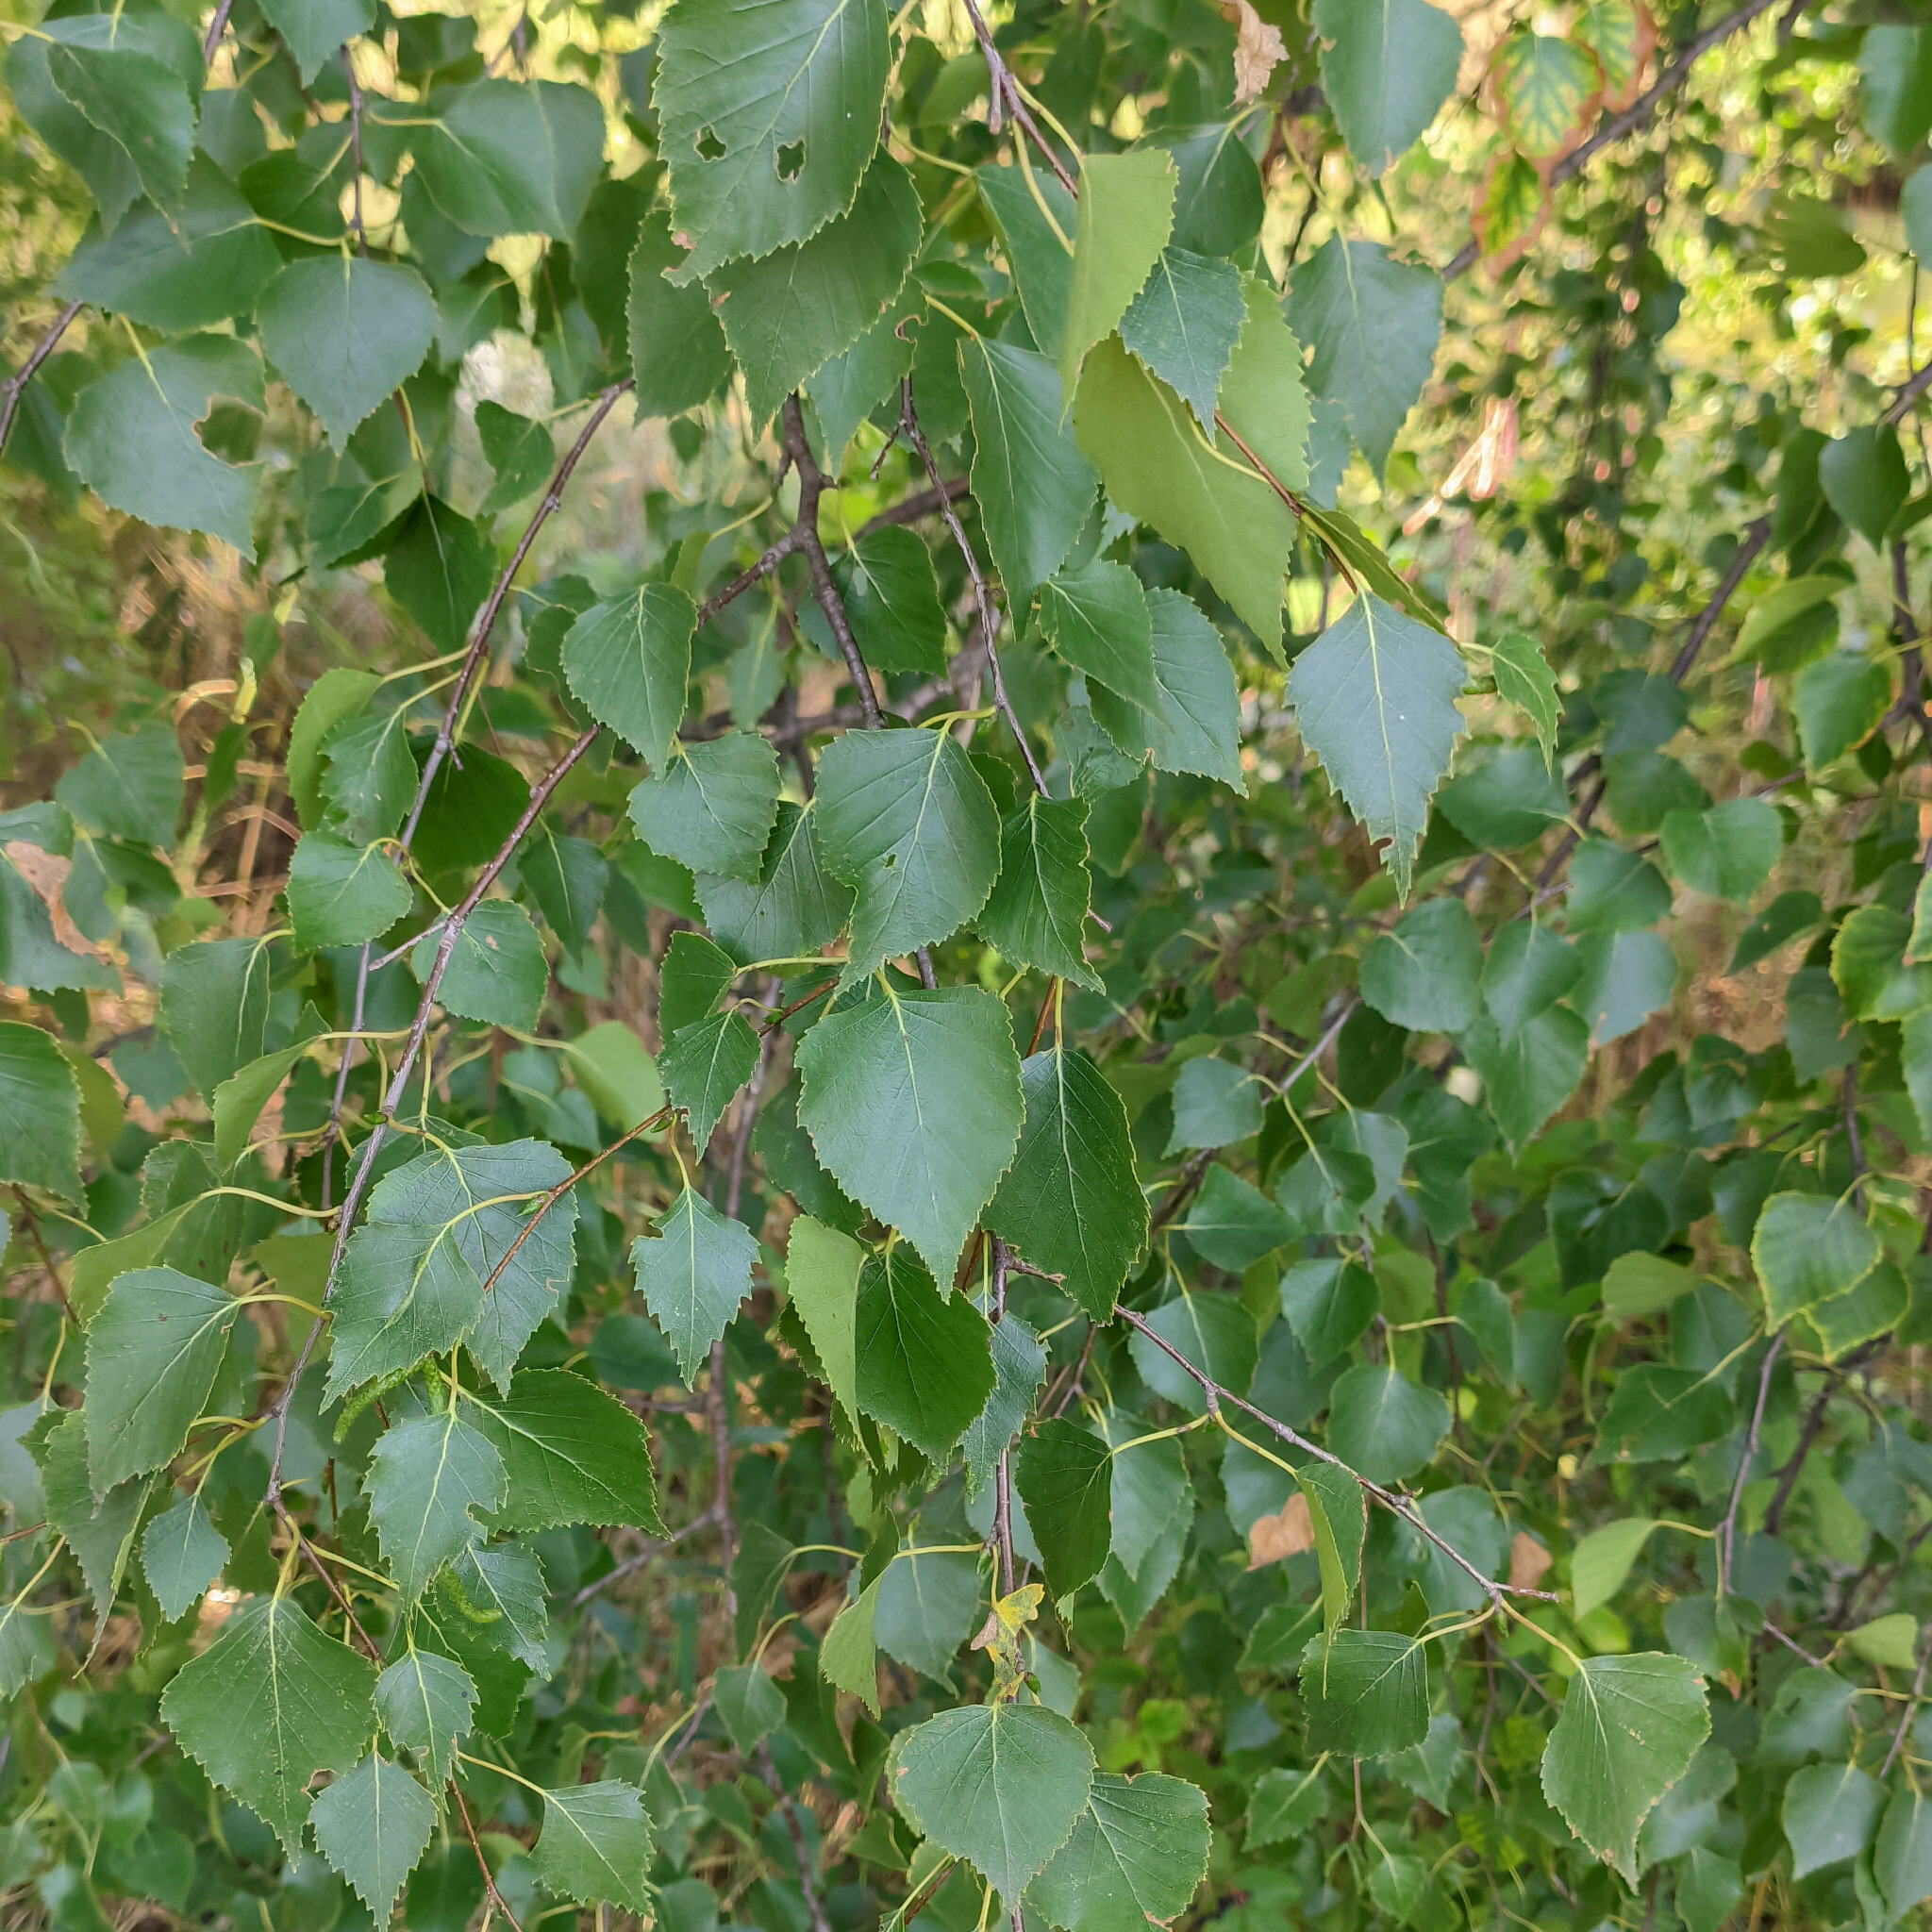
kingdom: Plantae
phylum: Tracheophyta
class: Magnoliopsida
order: Fagales
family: Betulaceae
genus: Betula
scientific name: Betula pendula
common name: Silver birch
